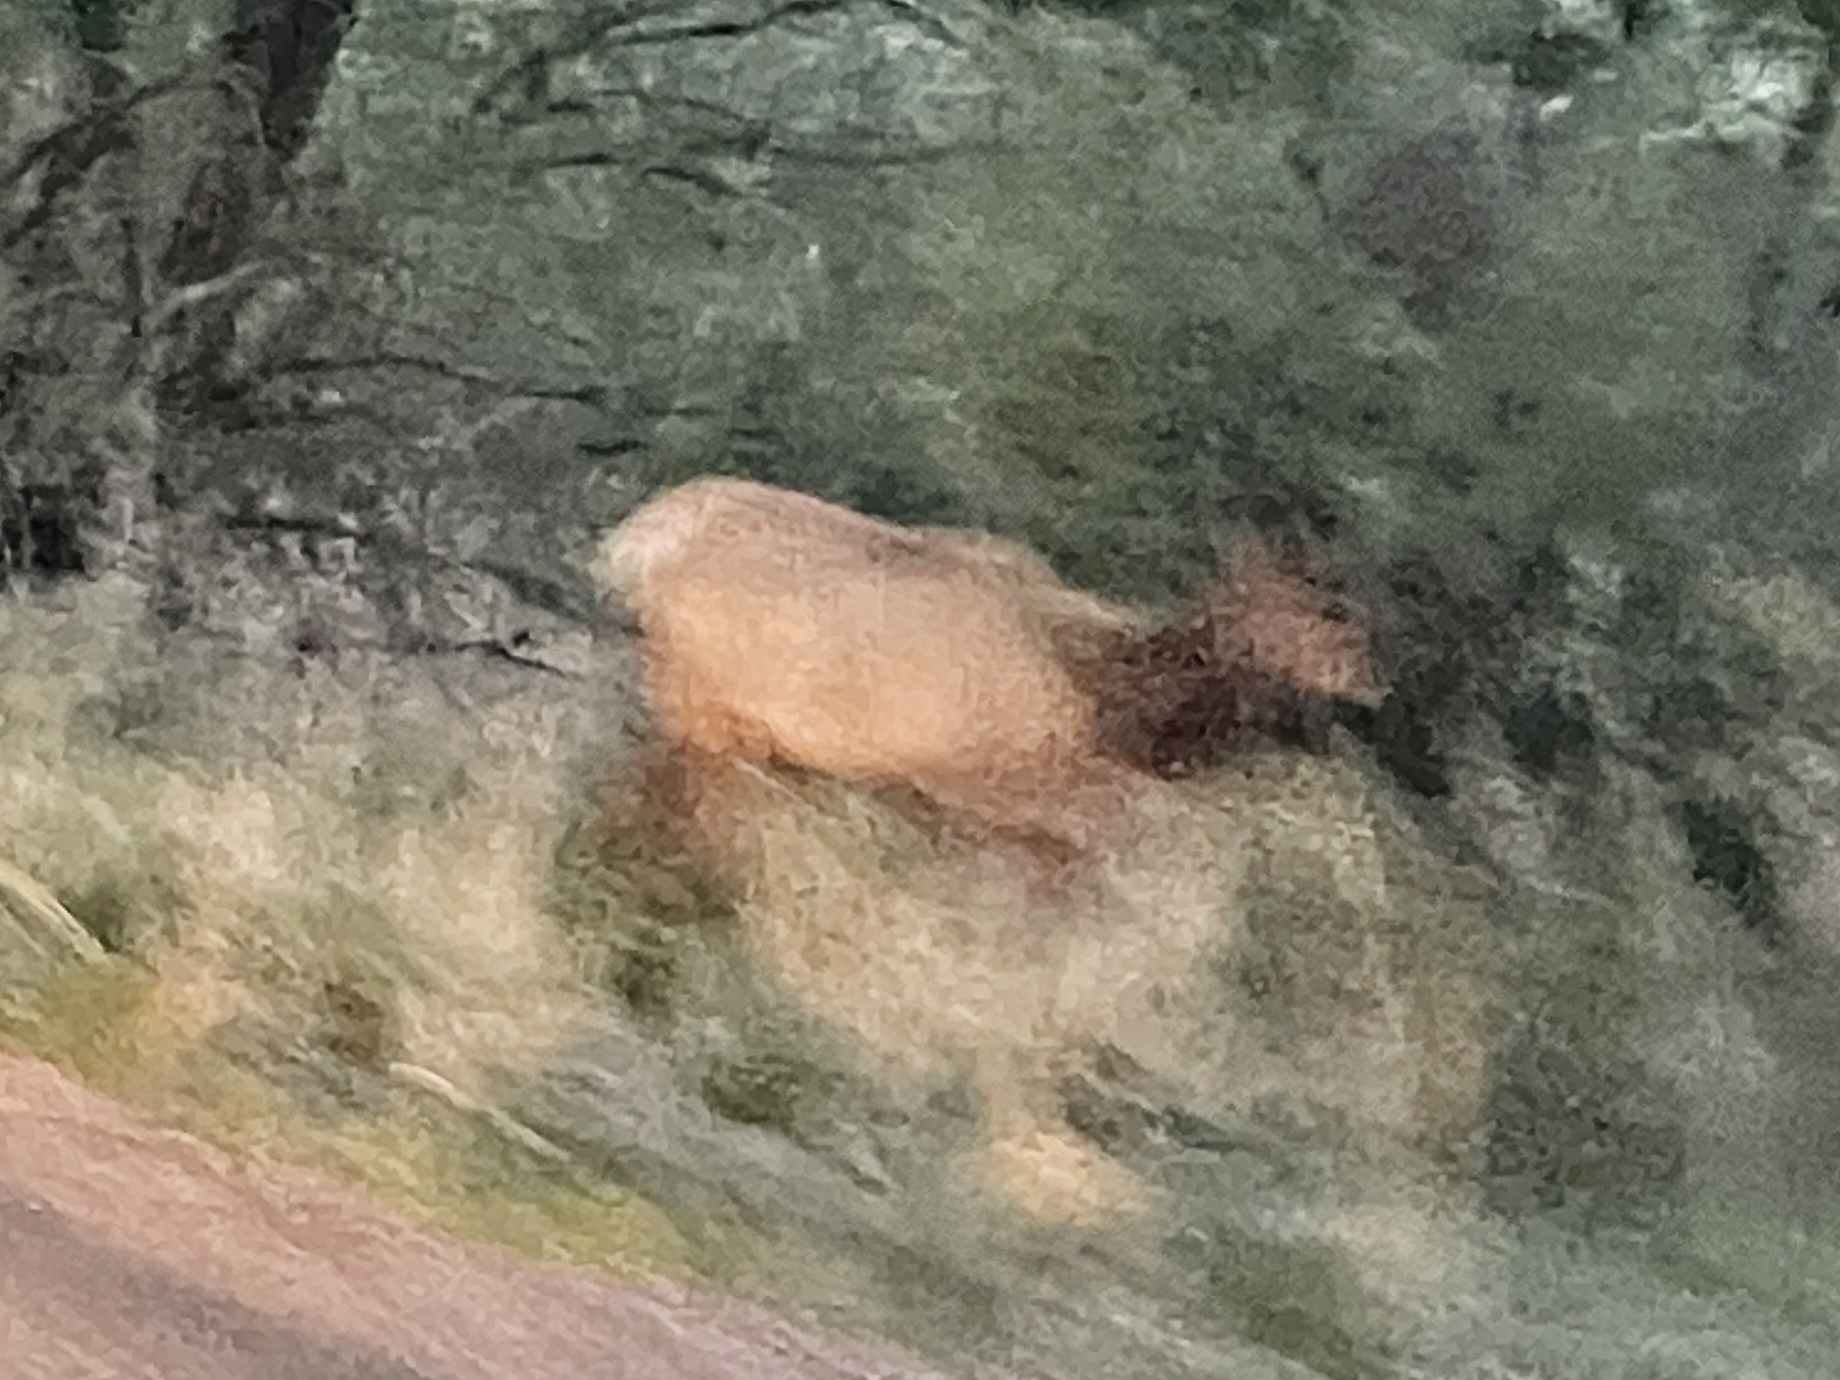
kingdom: Animalia
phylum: Chordata
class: Mammalia
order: Artiodactyla
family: Cervidae
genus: Cervus
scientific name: Cervus elaphus
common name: Red deer
